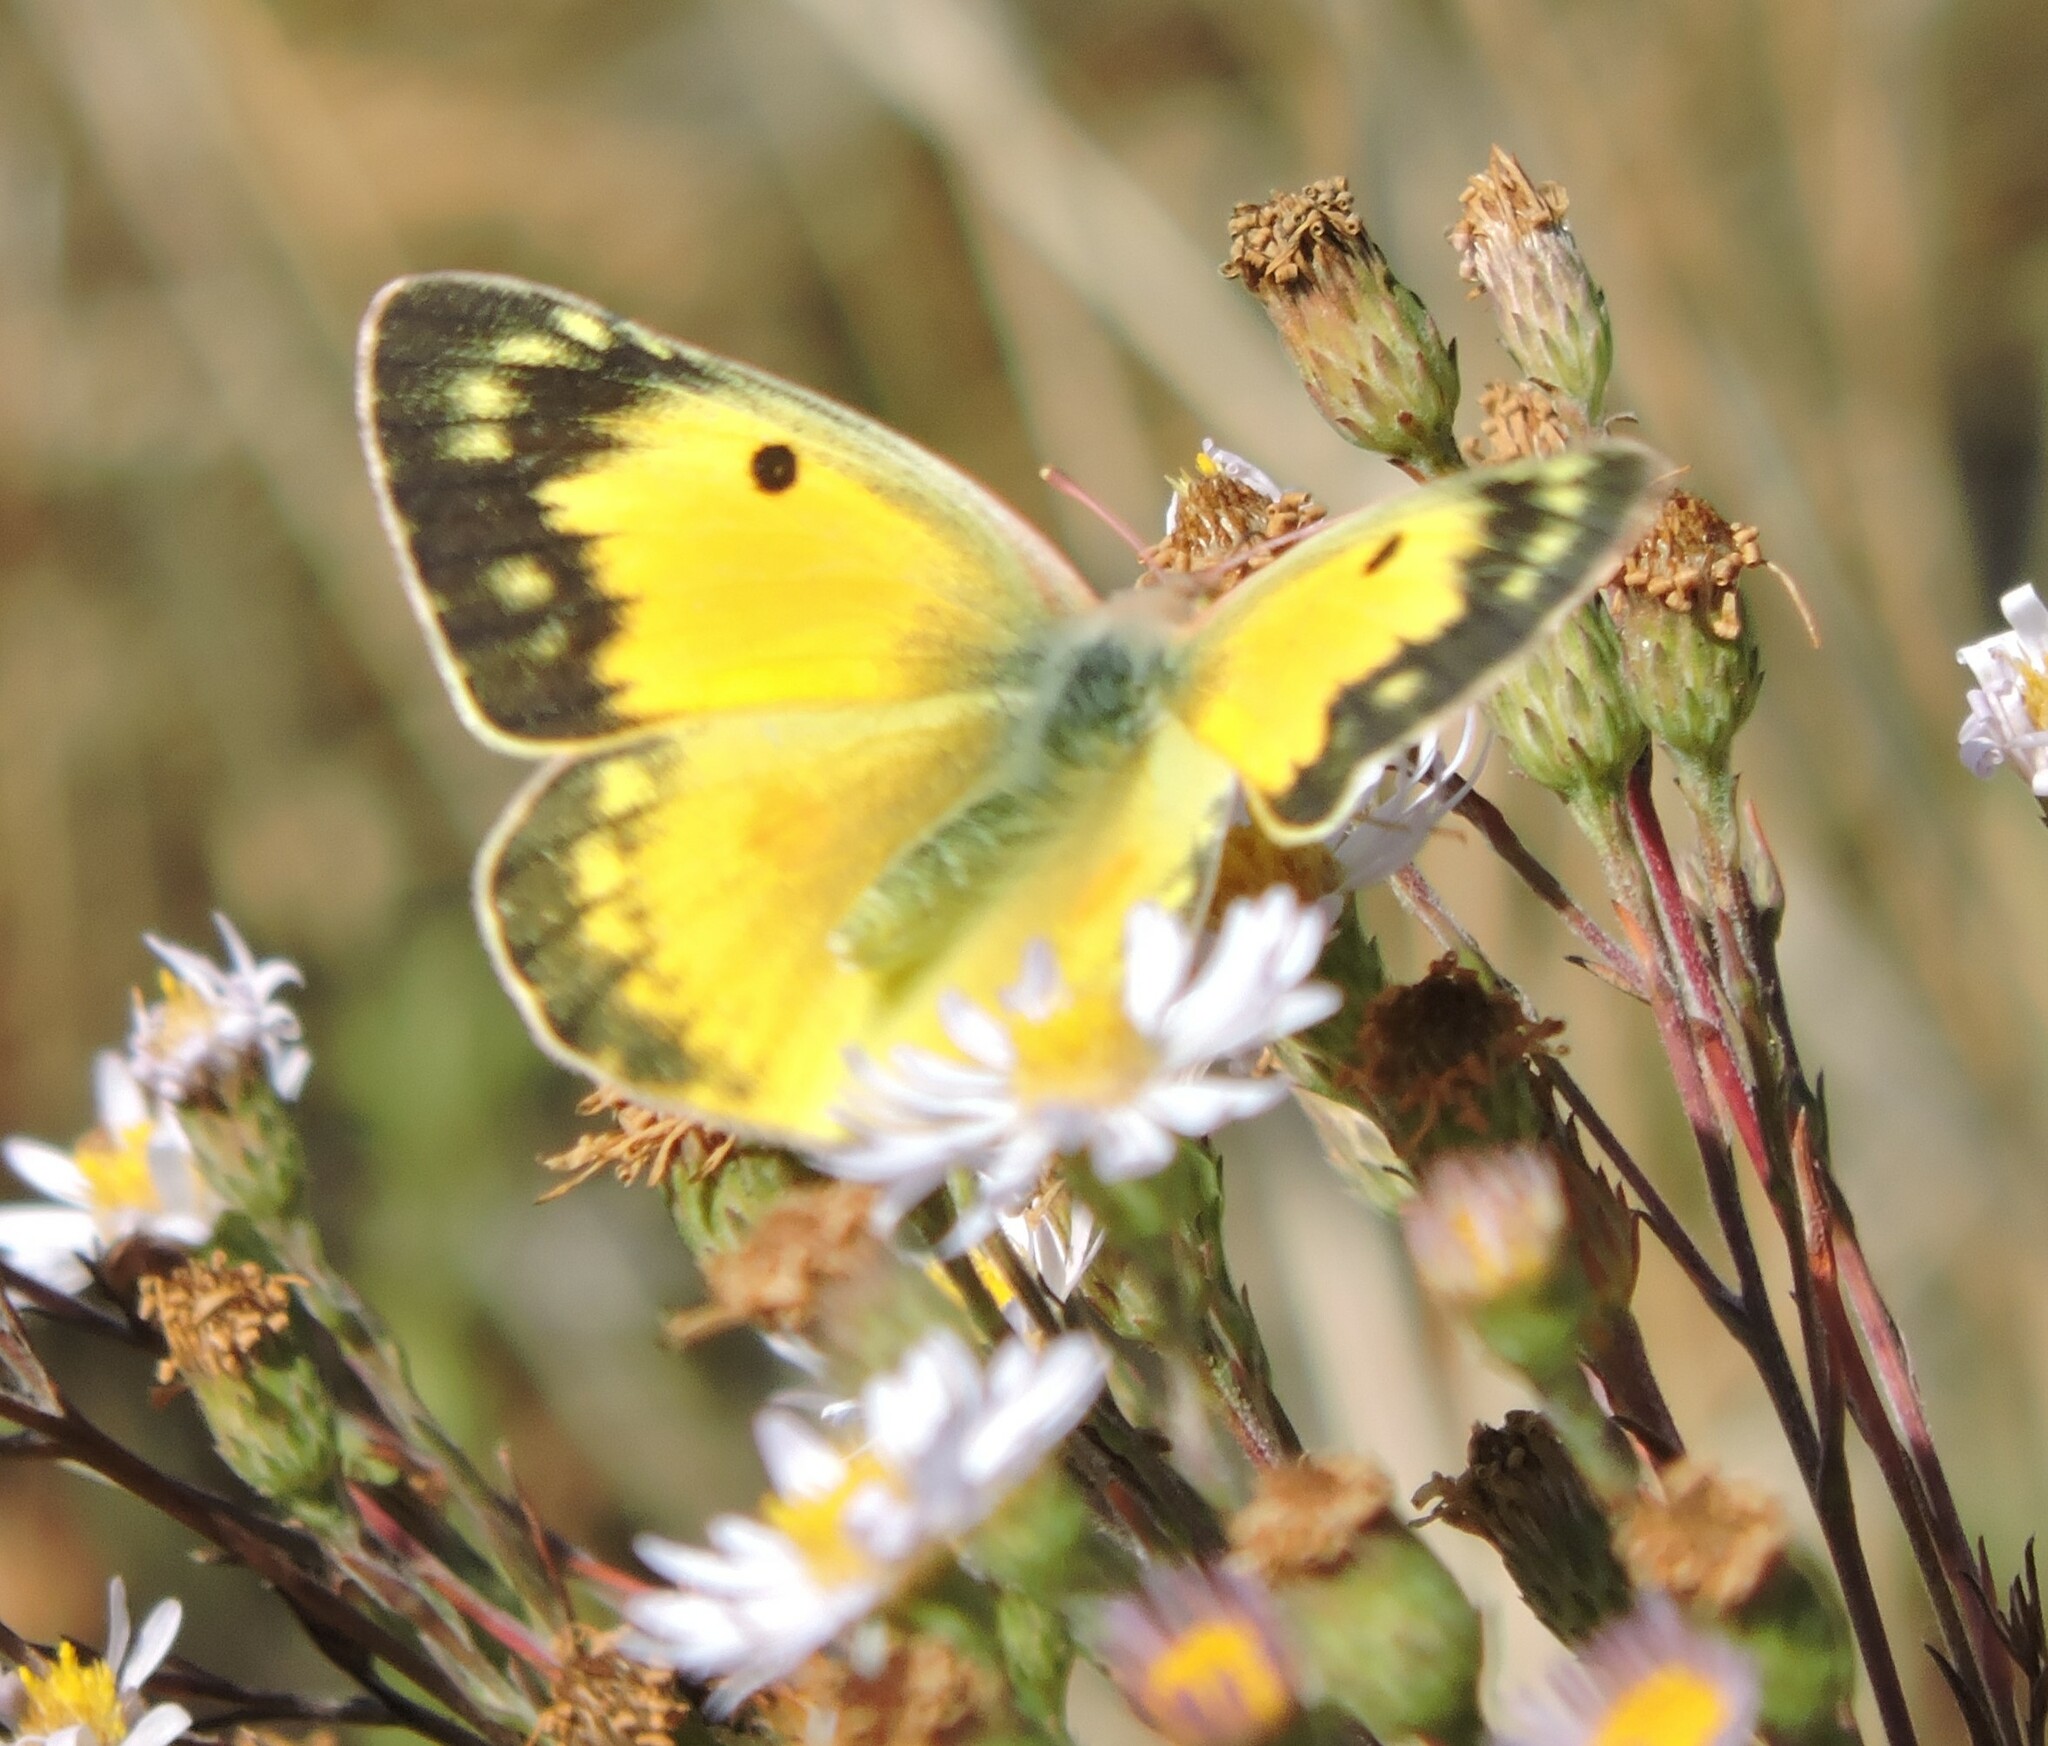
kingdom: Animalia
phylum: Arthropoda
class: Insecta
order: Lepidoptera
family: Pieridae
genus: Colias
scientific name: Colias eurytheme
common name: Alfalfa butterfly
